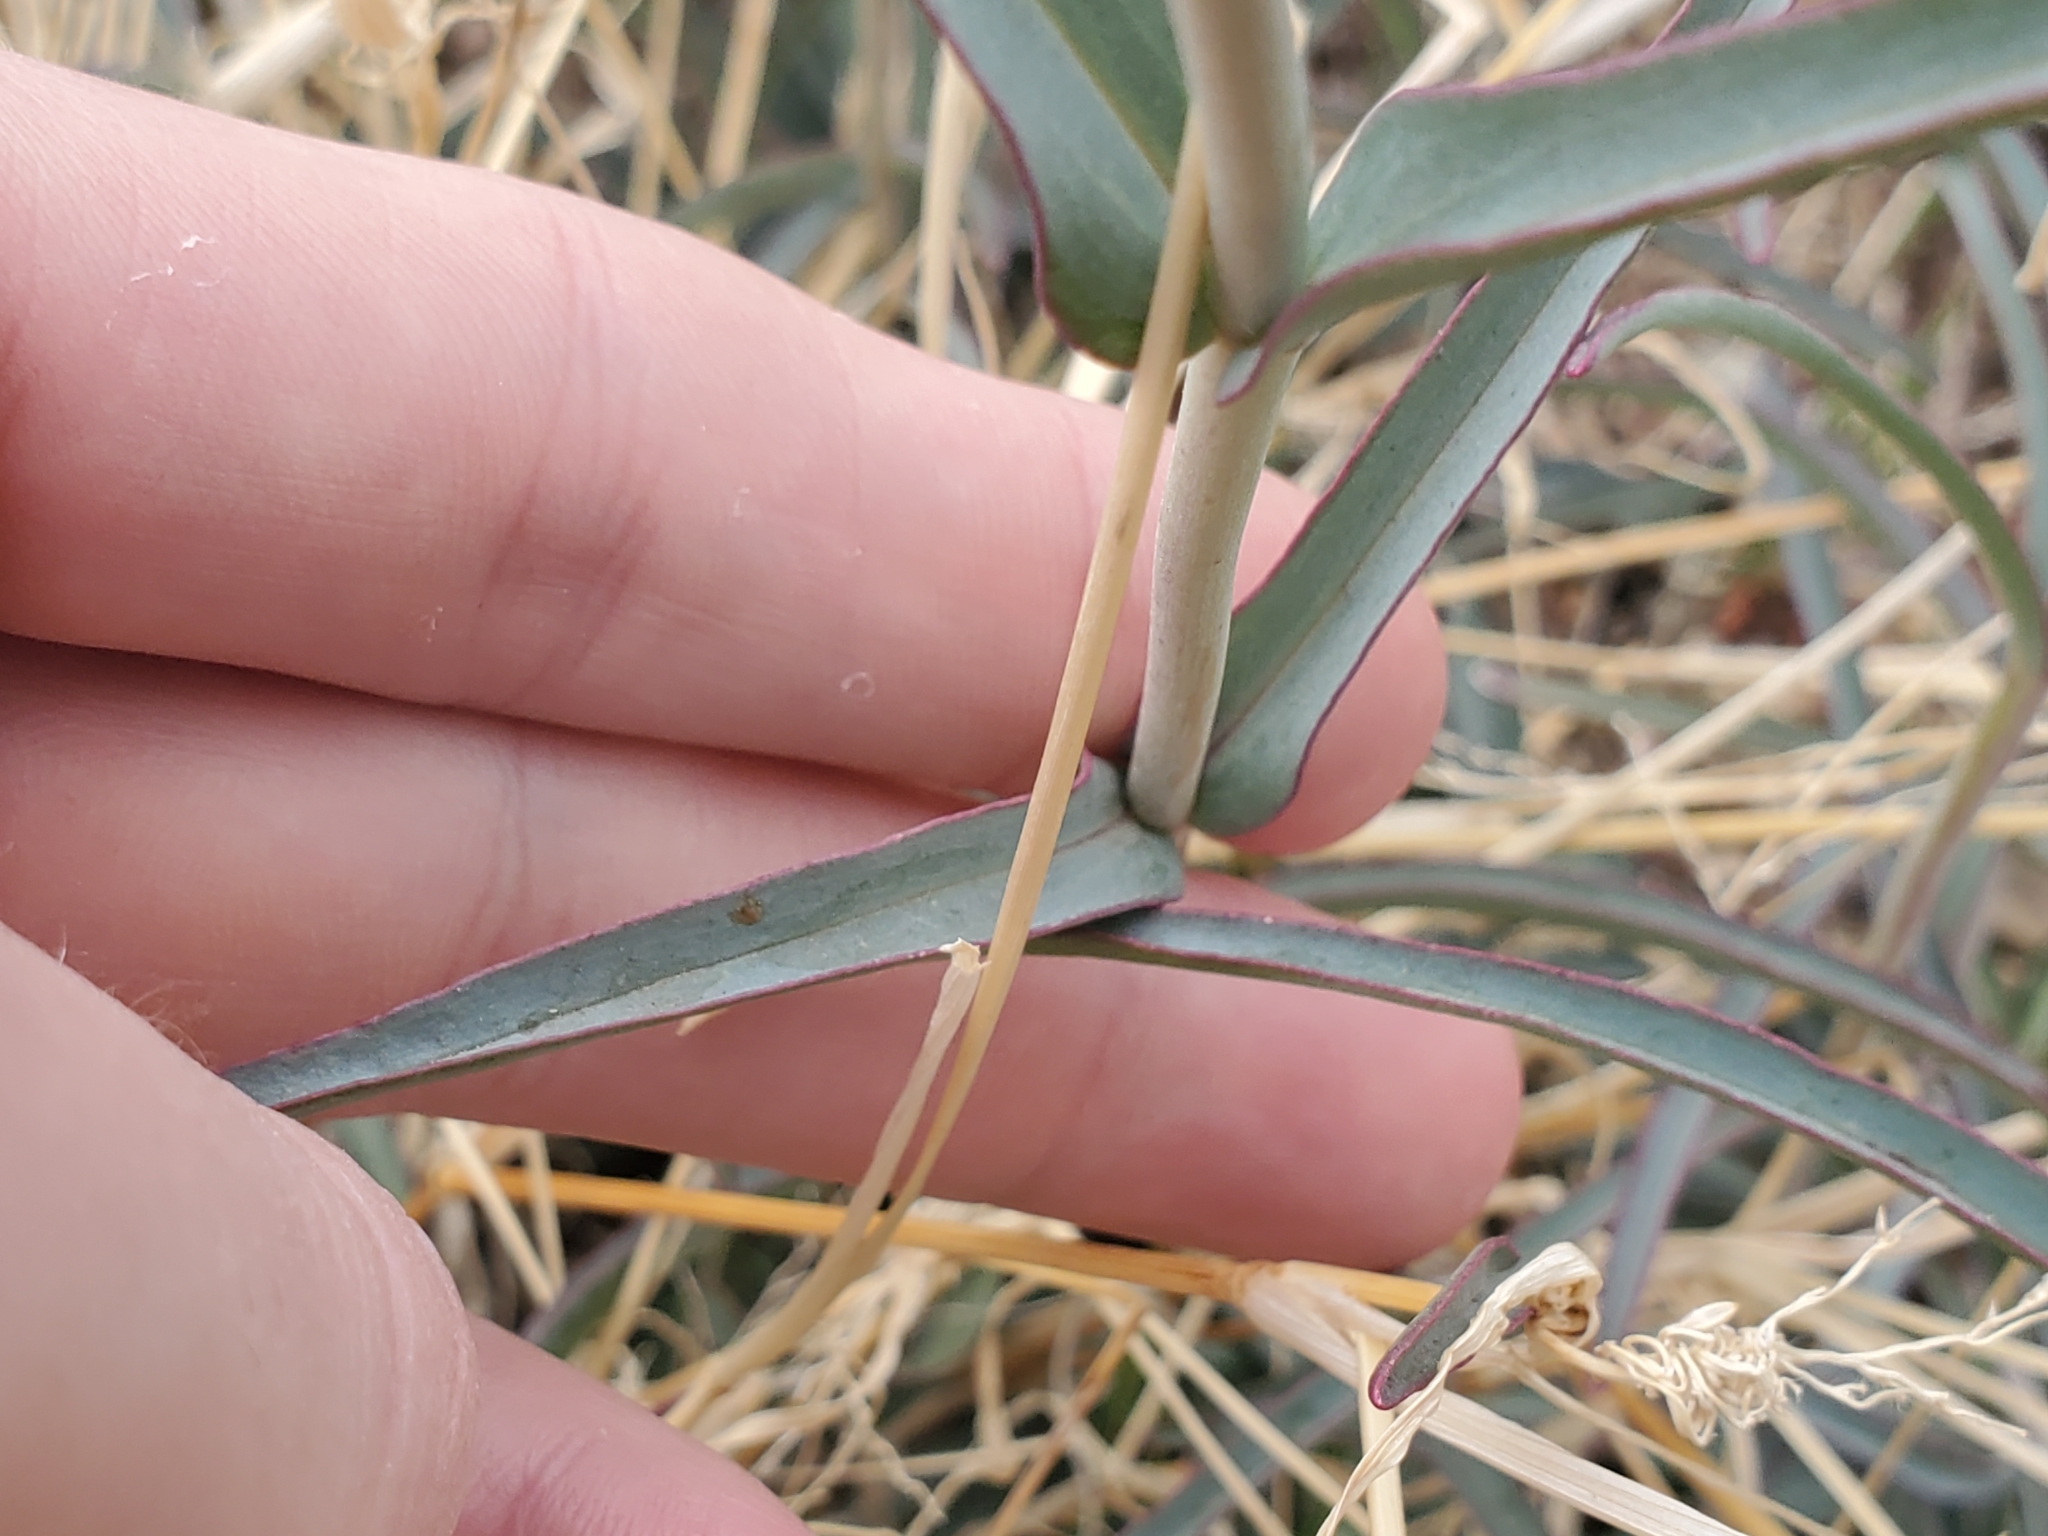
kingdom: Plantae
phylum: Tracheophyta
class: Magnoliopsida
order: Lamiales
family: Plantaginaceae
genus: Penstemon
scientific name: Penstemon subulatus
